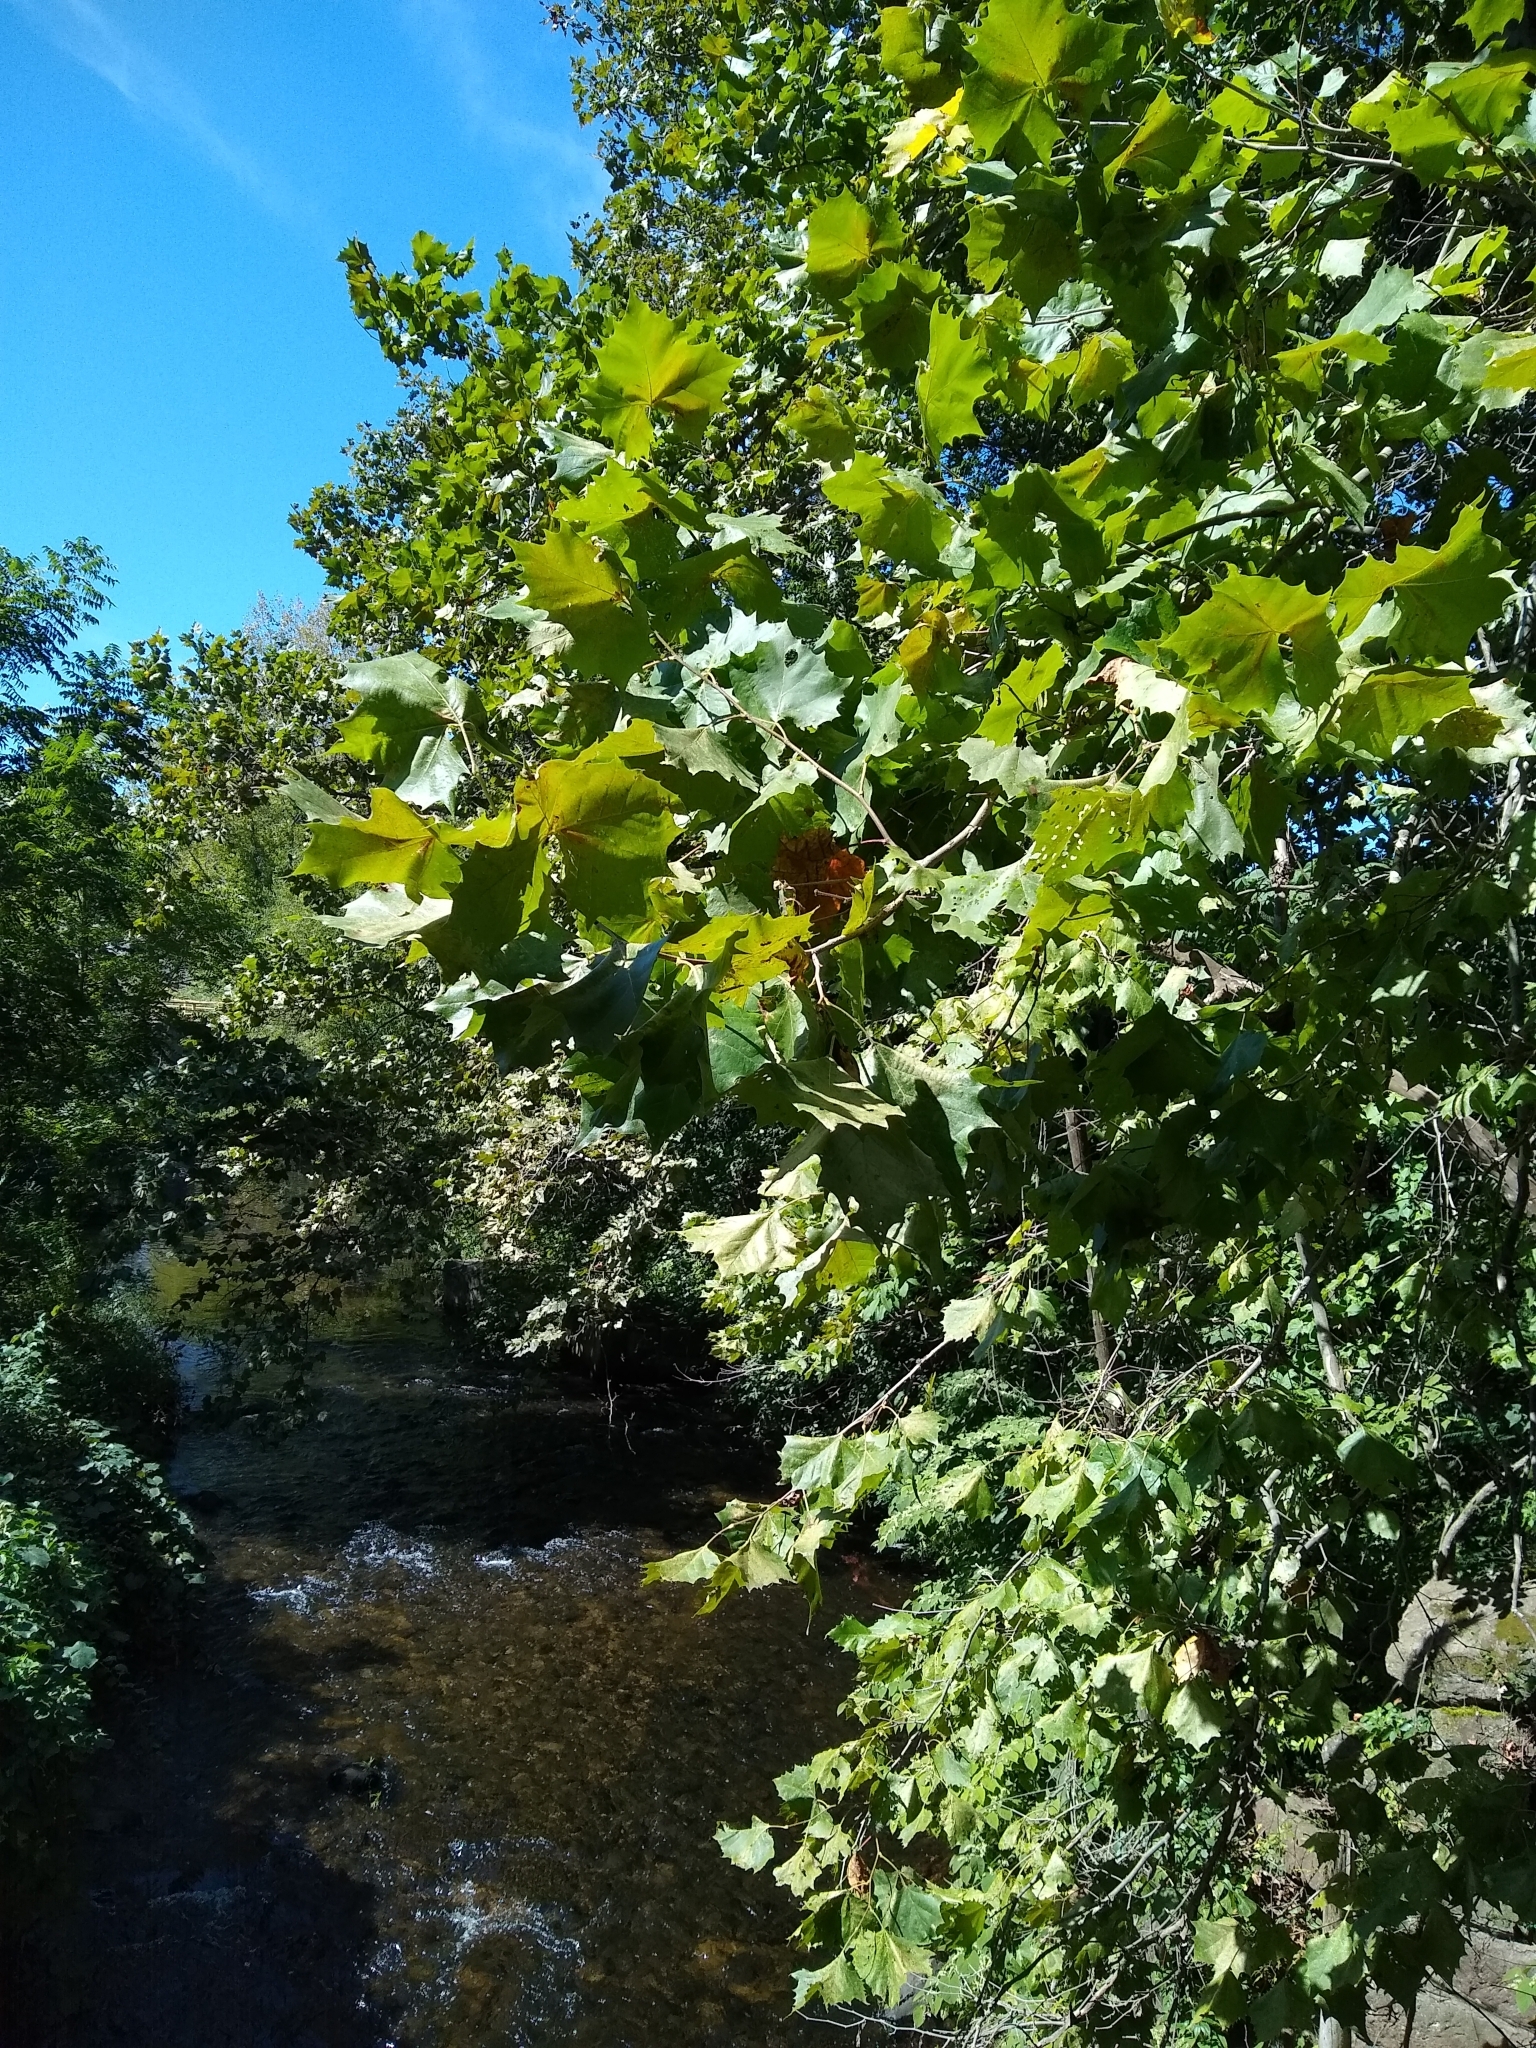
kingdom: Plantae
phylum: Tracheophyta
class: Magnoliopsida
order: Proteales
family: Platanaceae
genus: Platanus
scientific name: Platanus occidentalis
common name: American sycamore
